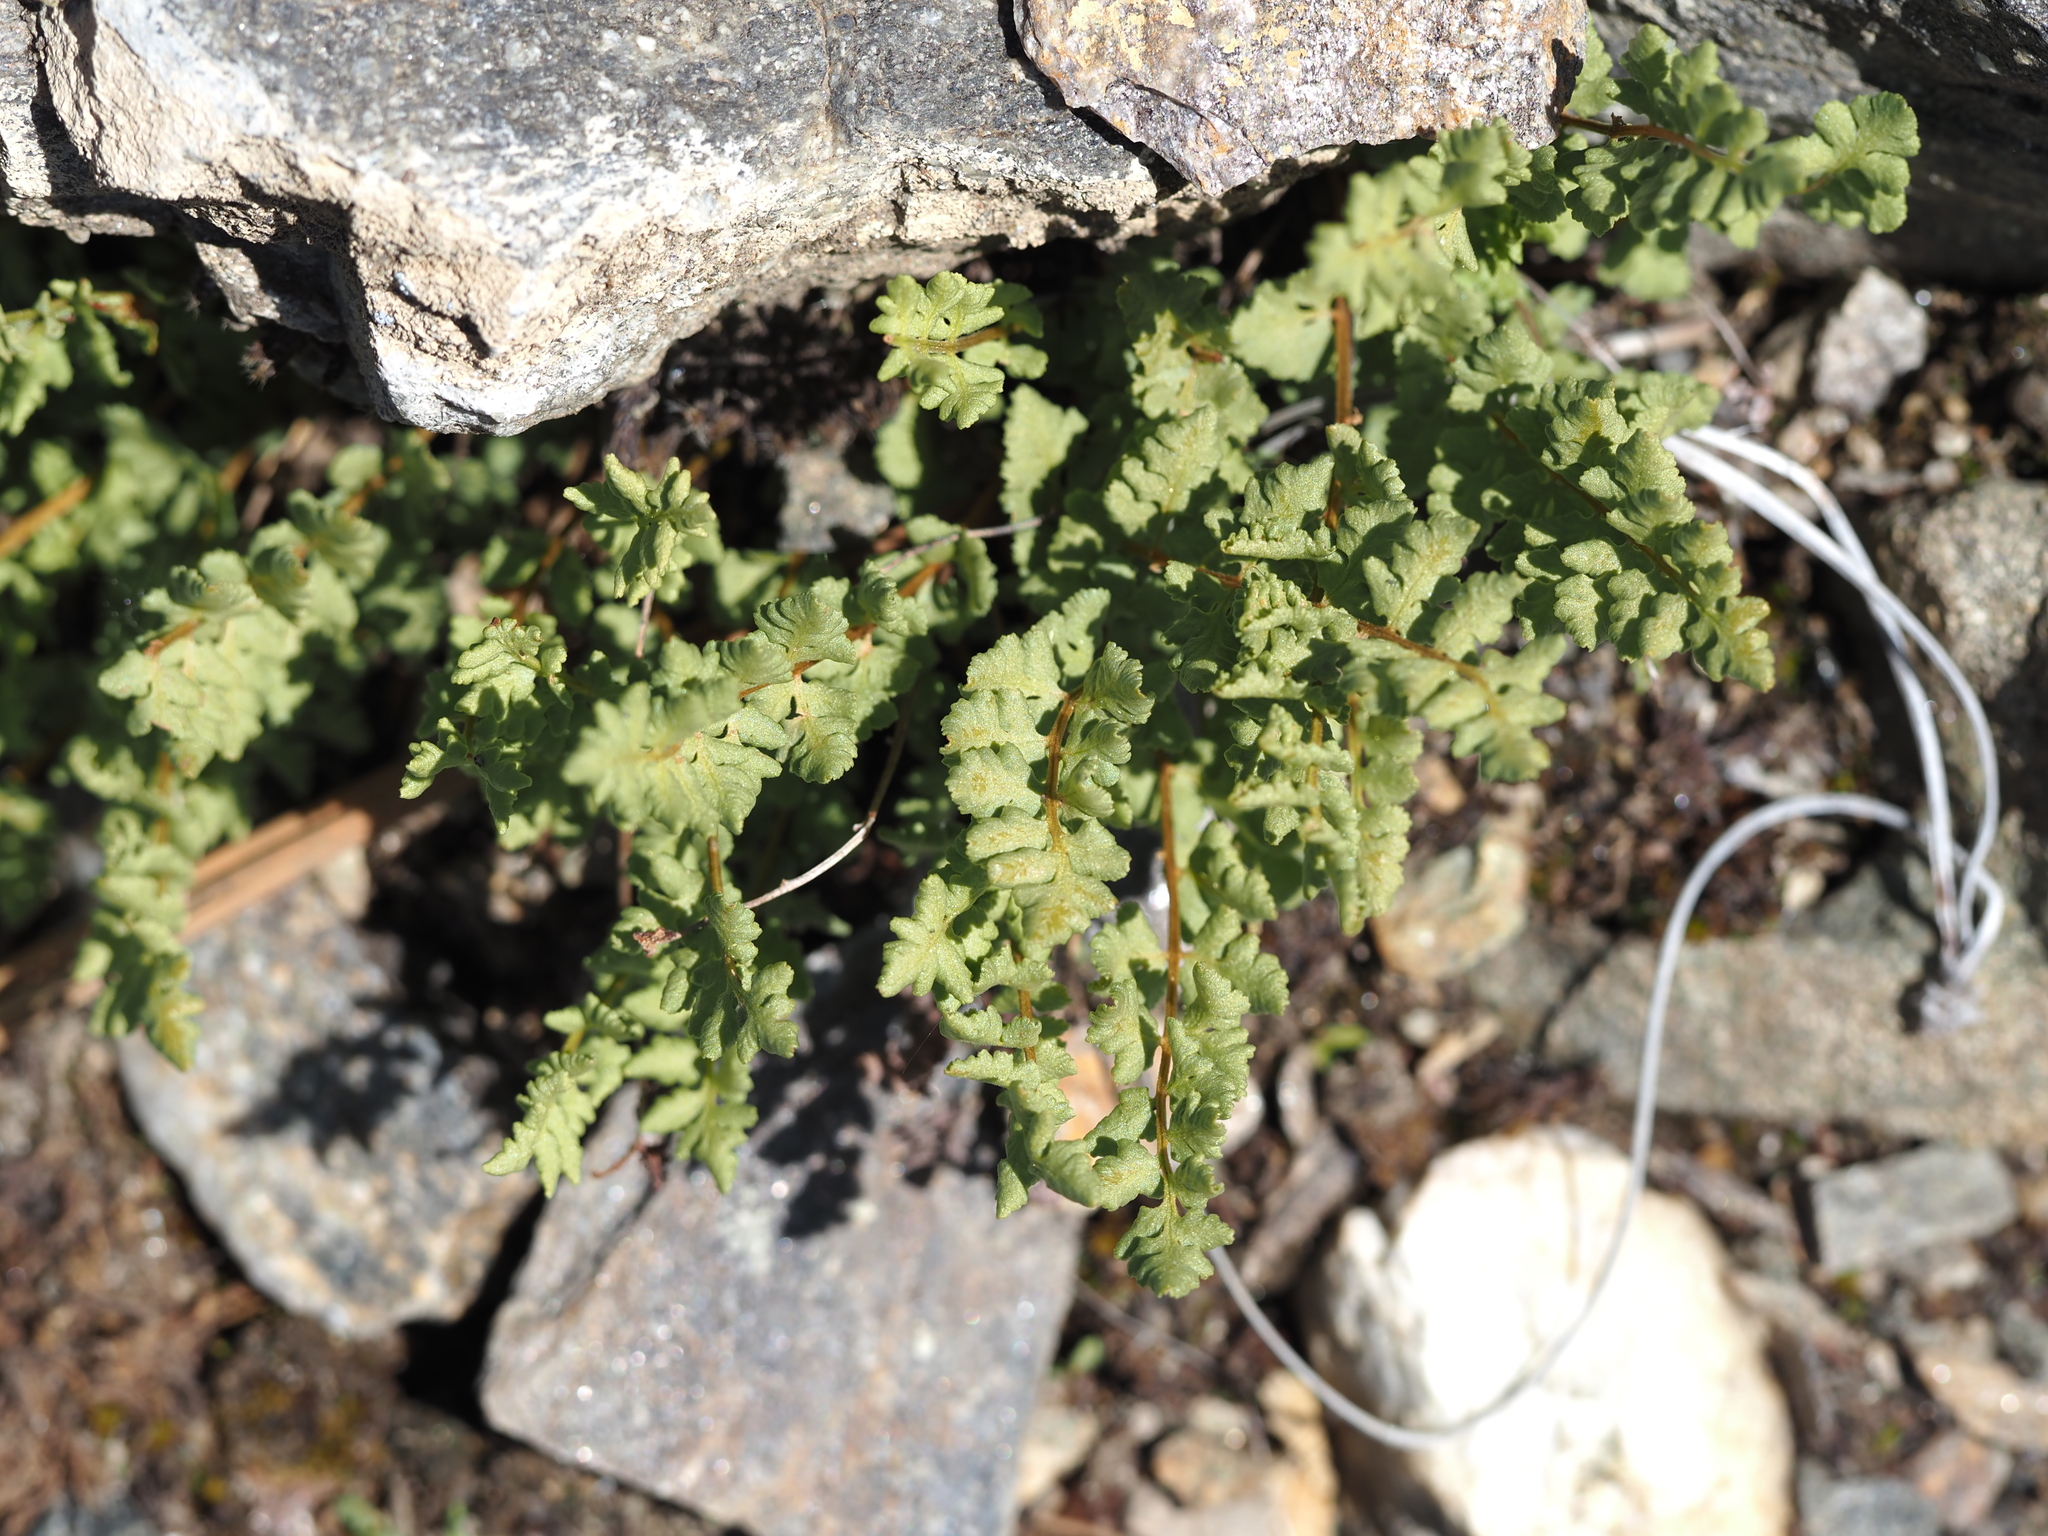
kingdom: Plantae
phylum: Tracheophyta
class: Polypodiopsida
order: Polypodiales
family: Woodsiaceae
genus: Physematium
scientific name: Physematium oreganum
